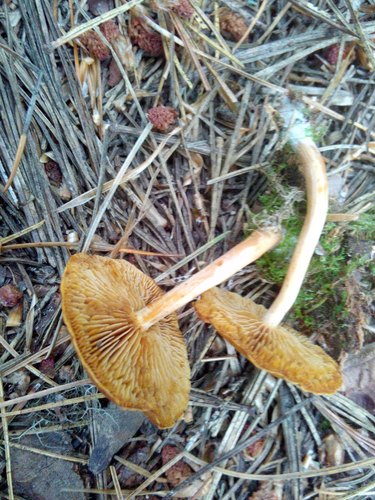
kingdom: Fungi
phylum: Basidiomycota
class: Agaricomycetes
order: Agaricales
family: Hymenogastraceae
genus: Gymnopilus
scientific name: Gymnopilus penetrans
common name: Common rustgill
